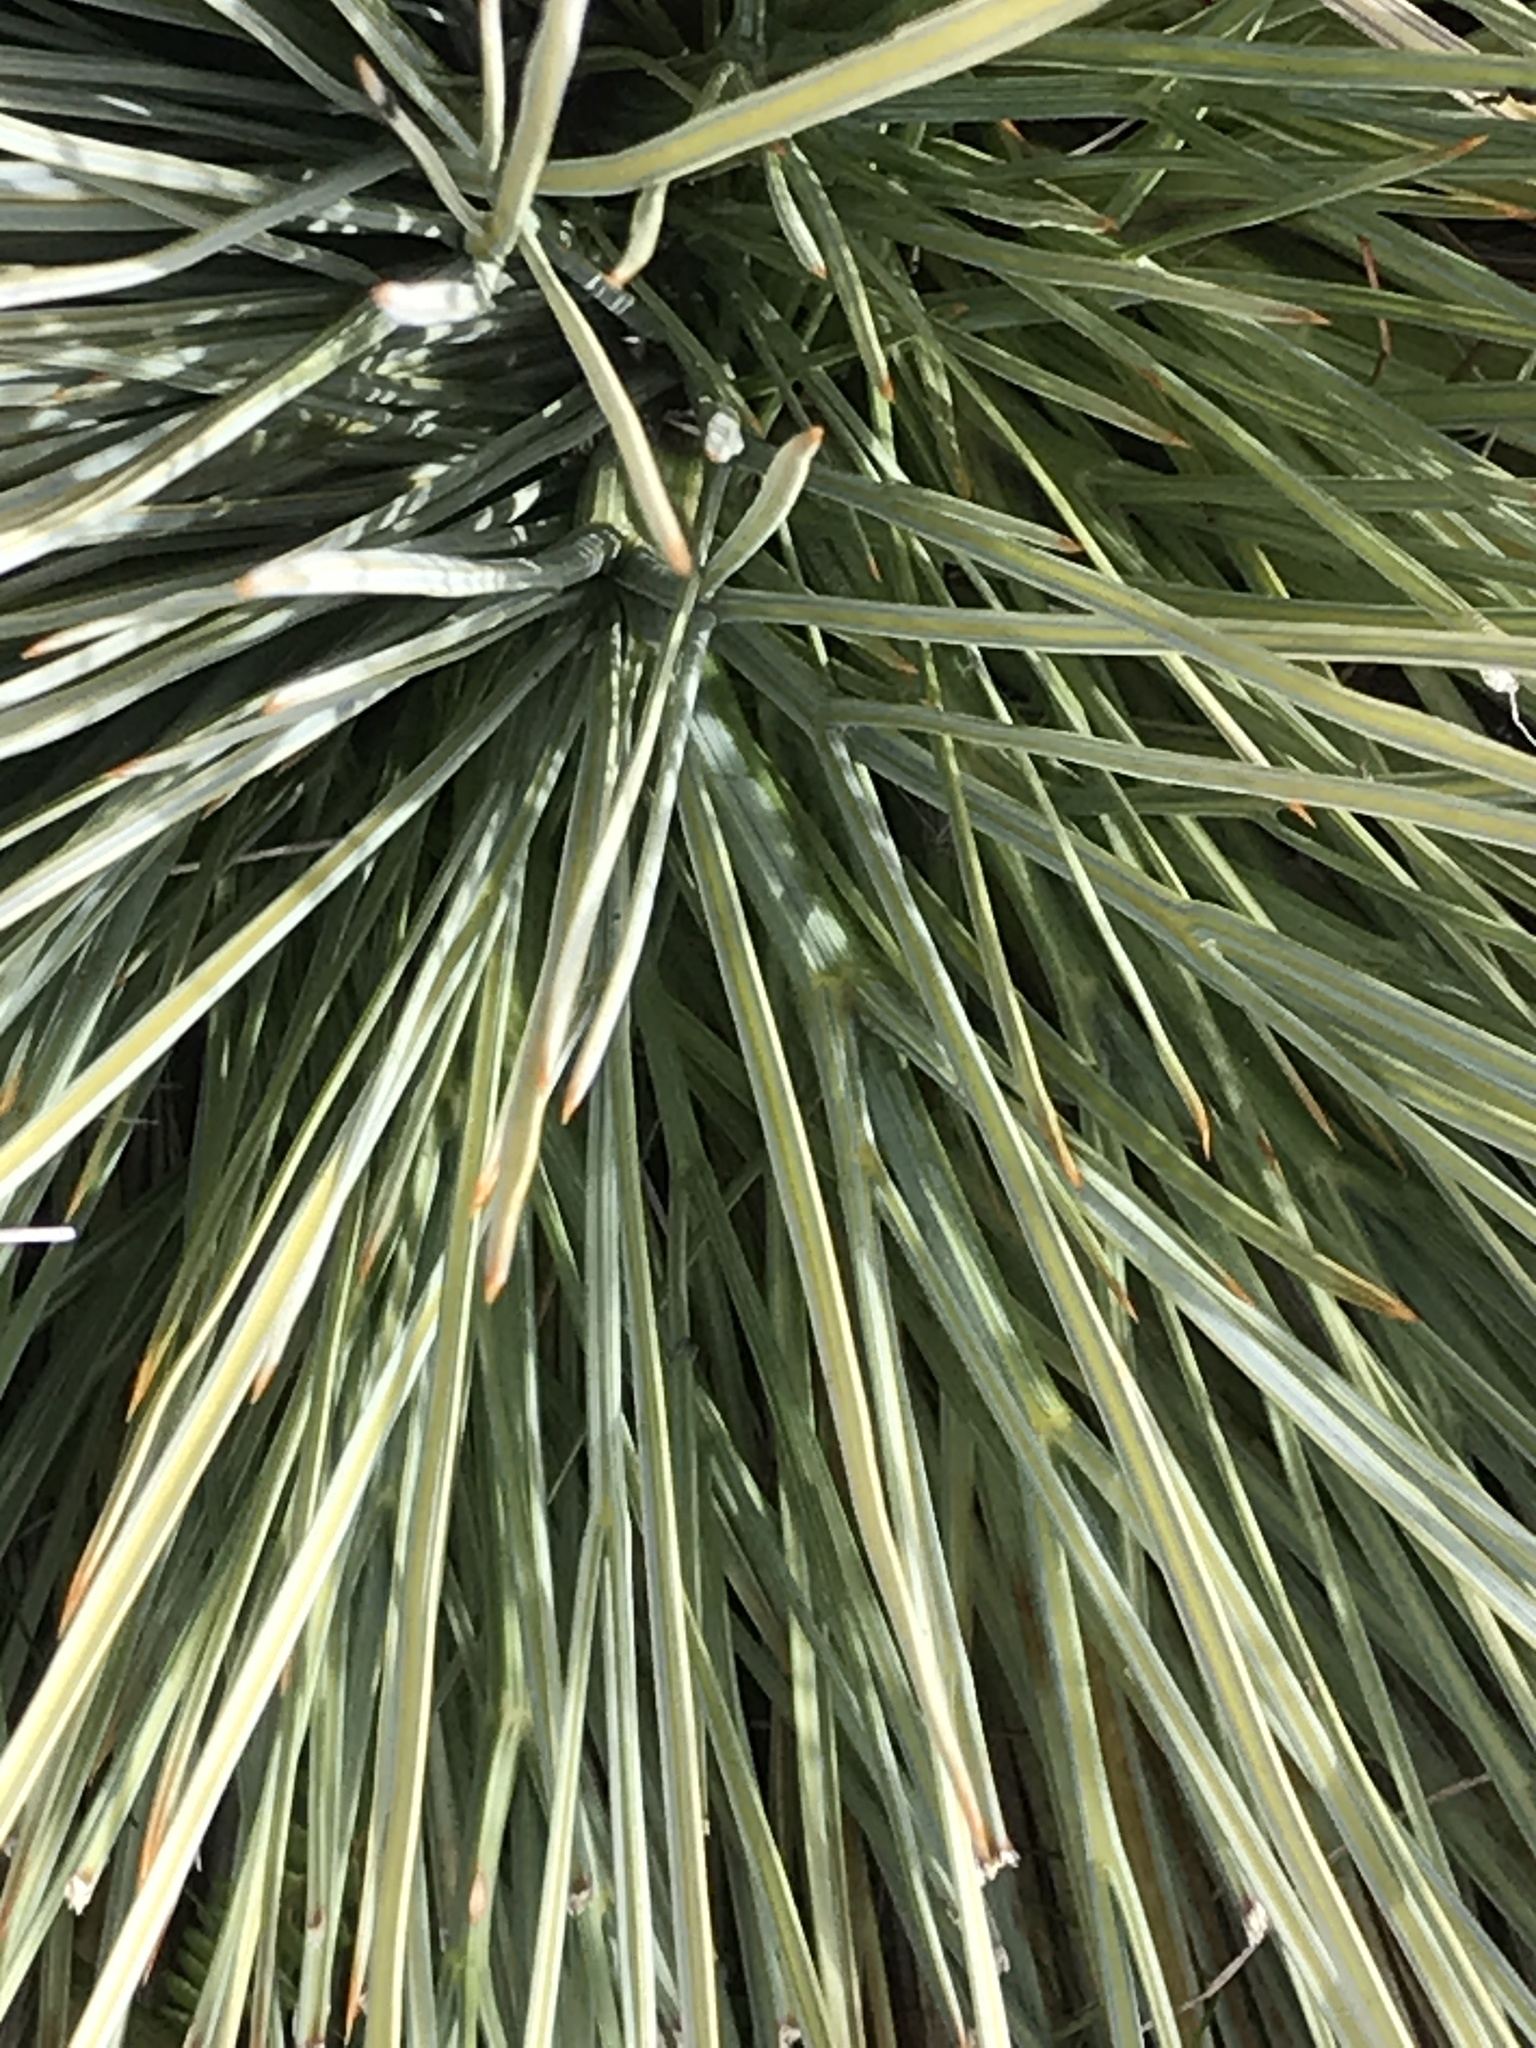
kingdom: Plantae
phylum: Tracheophyta
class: Magnoliopsida
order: Apiales
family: Apiaceae
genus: Aciphylla
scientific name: Aciphylla subflabellata
